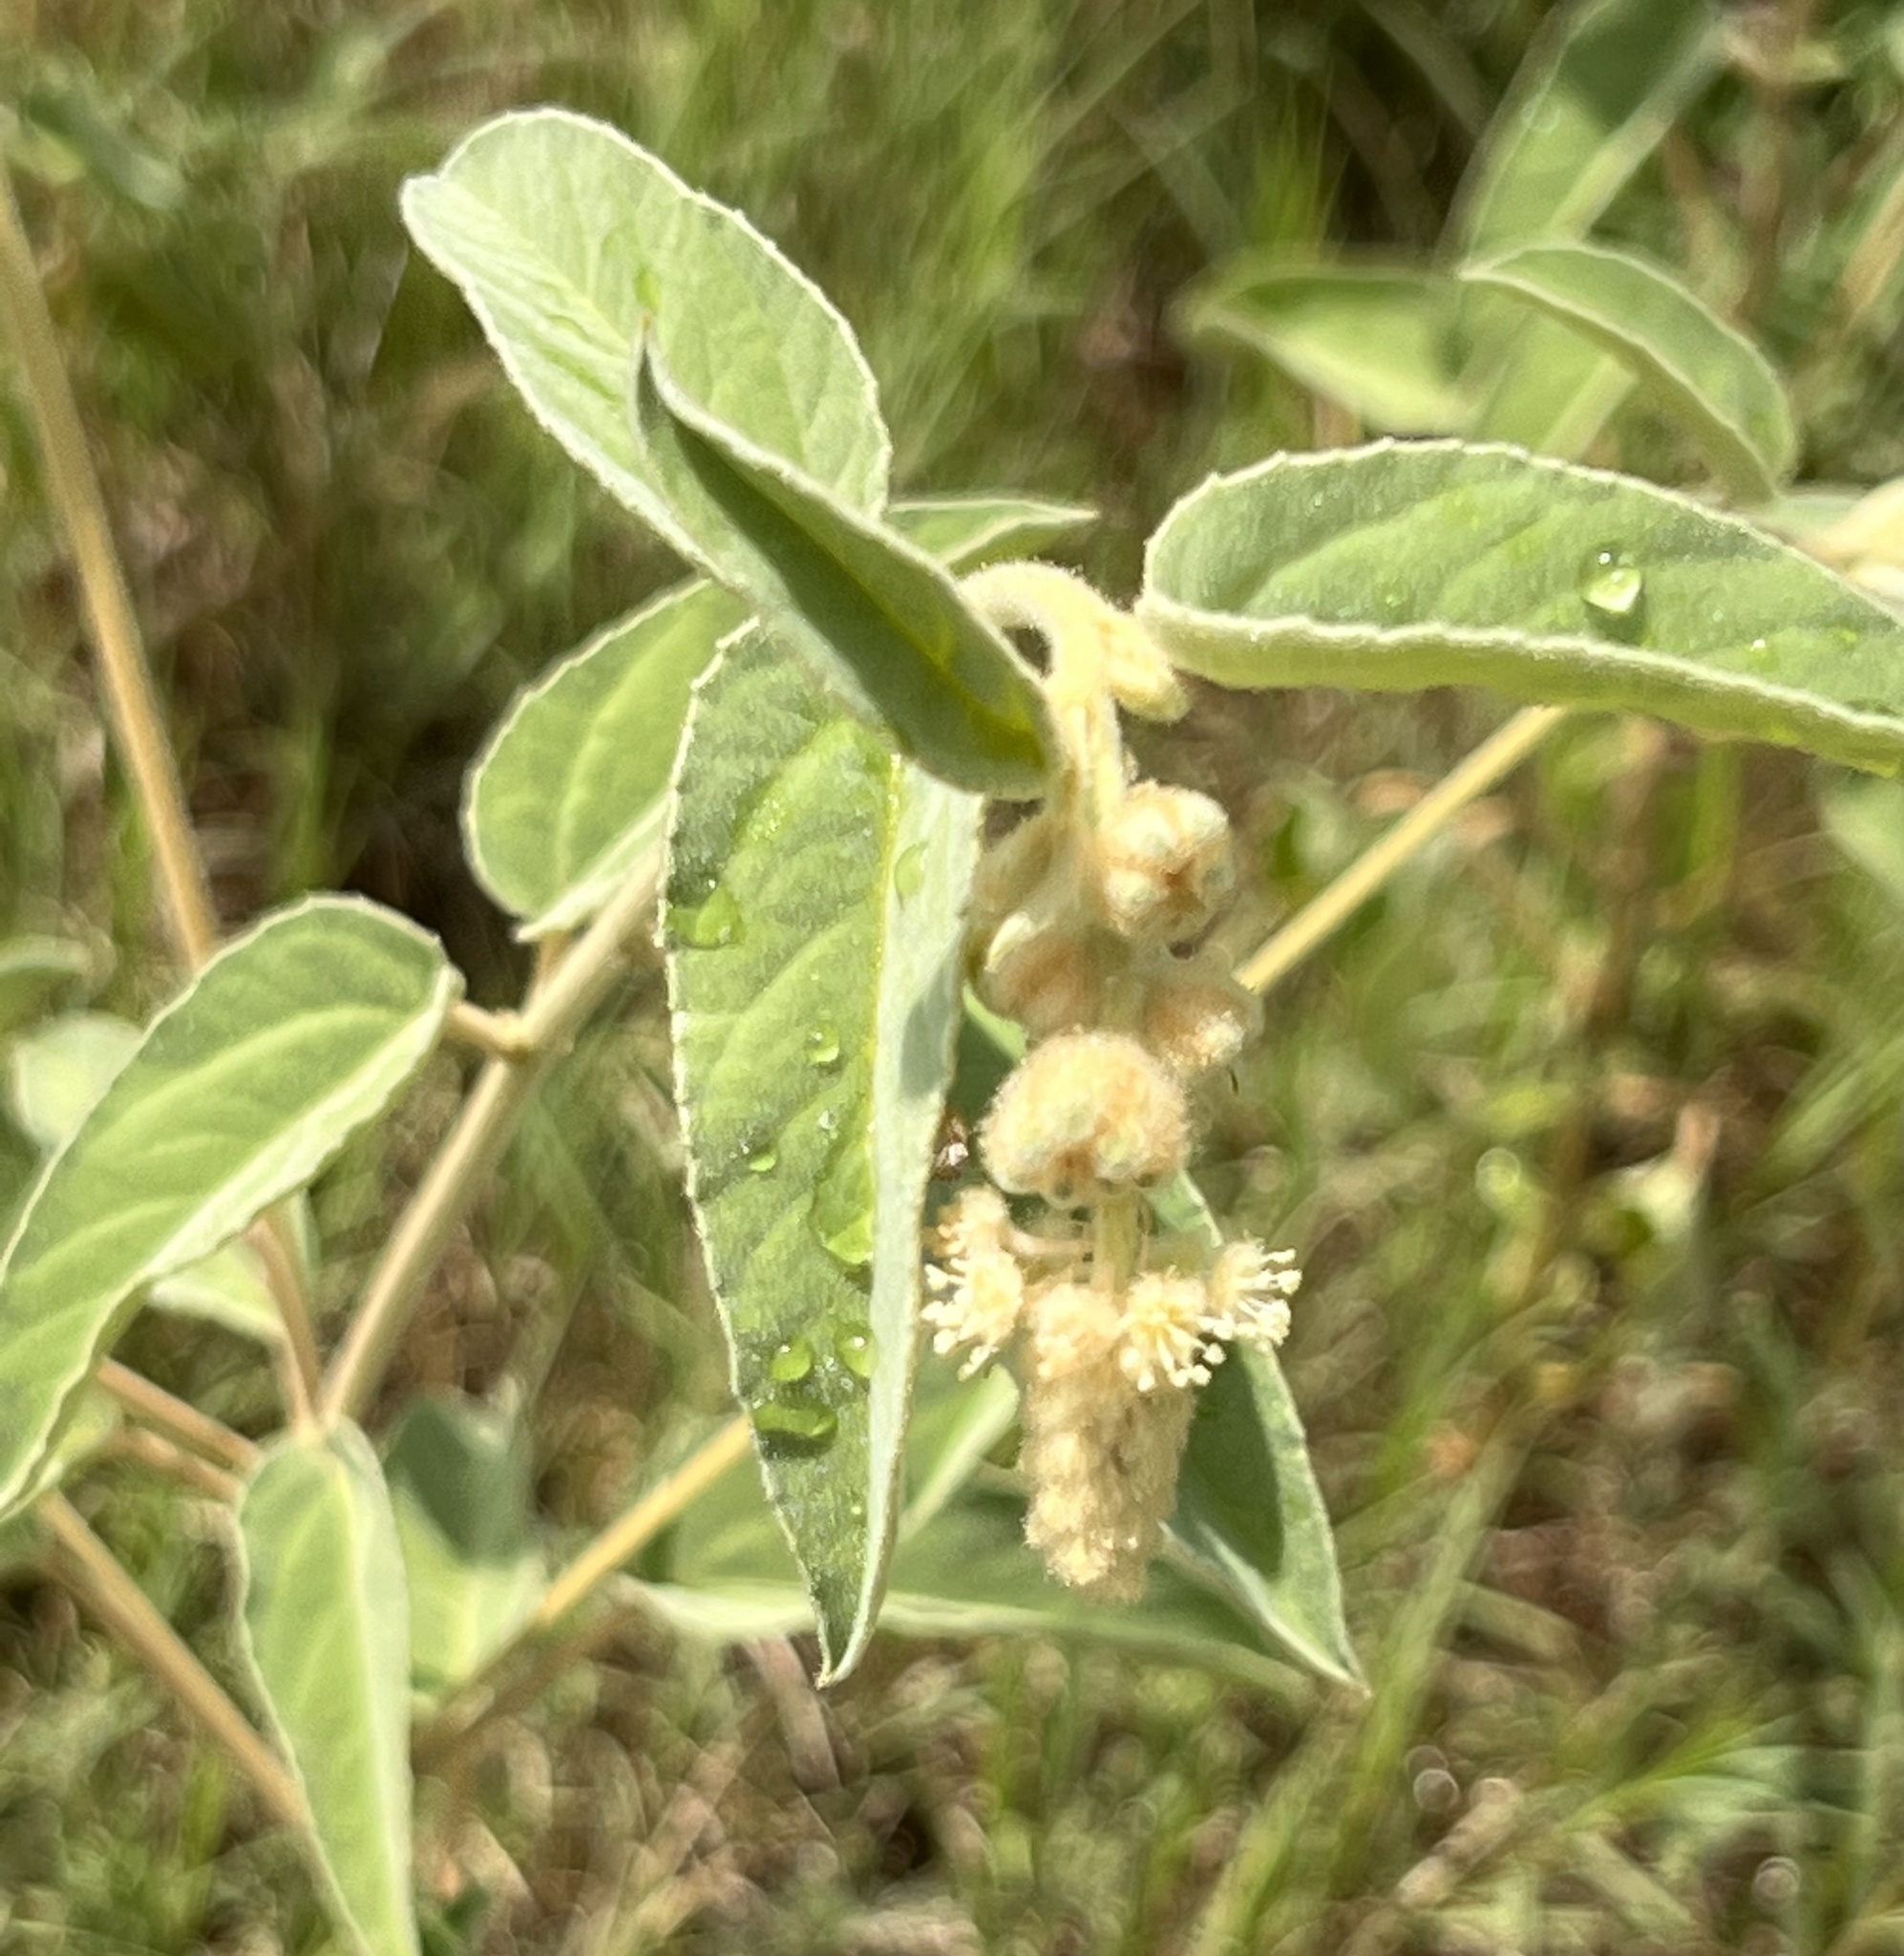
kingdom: Plantae
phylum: Tracheophyta
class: Magnoliopsida
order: Malpighiales
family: Euphorbiaceae
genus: Croton
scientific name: Croton lindheimeri
